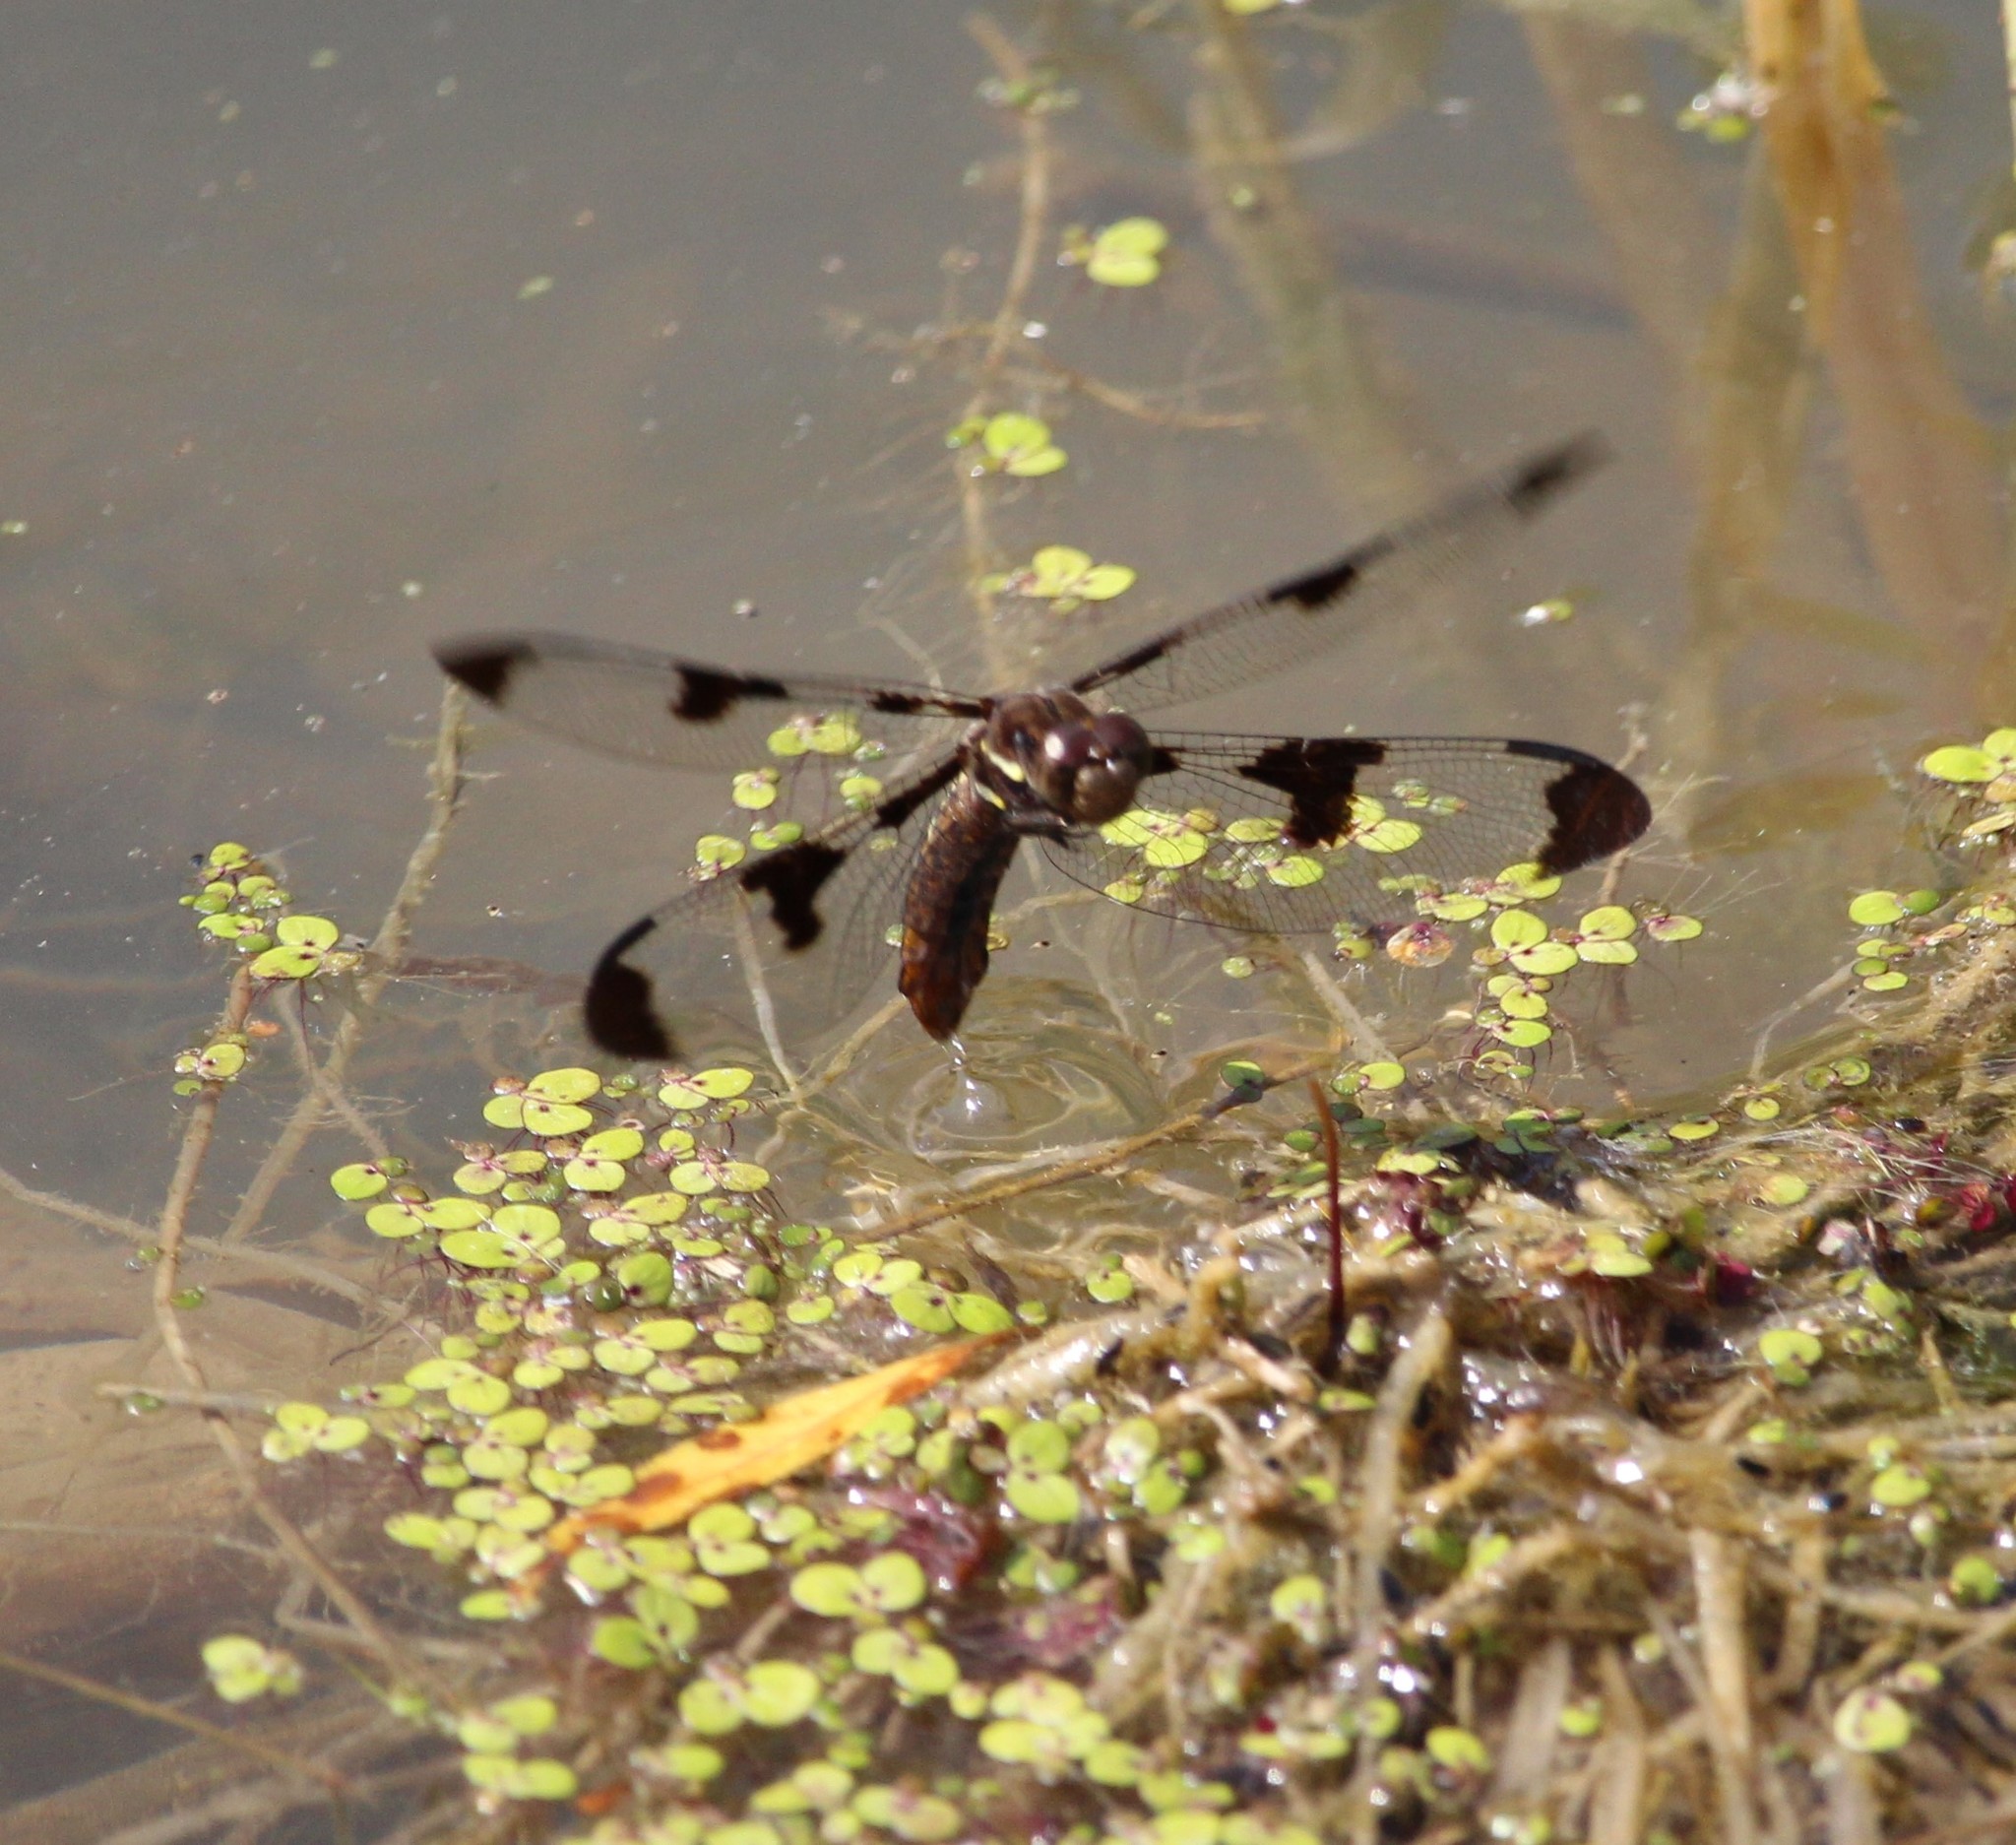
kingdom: Animalia
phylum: Arthropoda
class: Insecta
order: Odonata
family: Libellulidae
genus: Plathemis
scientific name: Plathemis lydia
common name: Common whitetail
